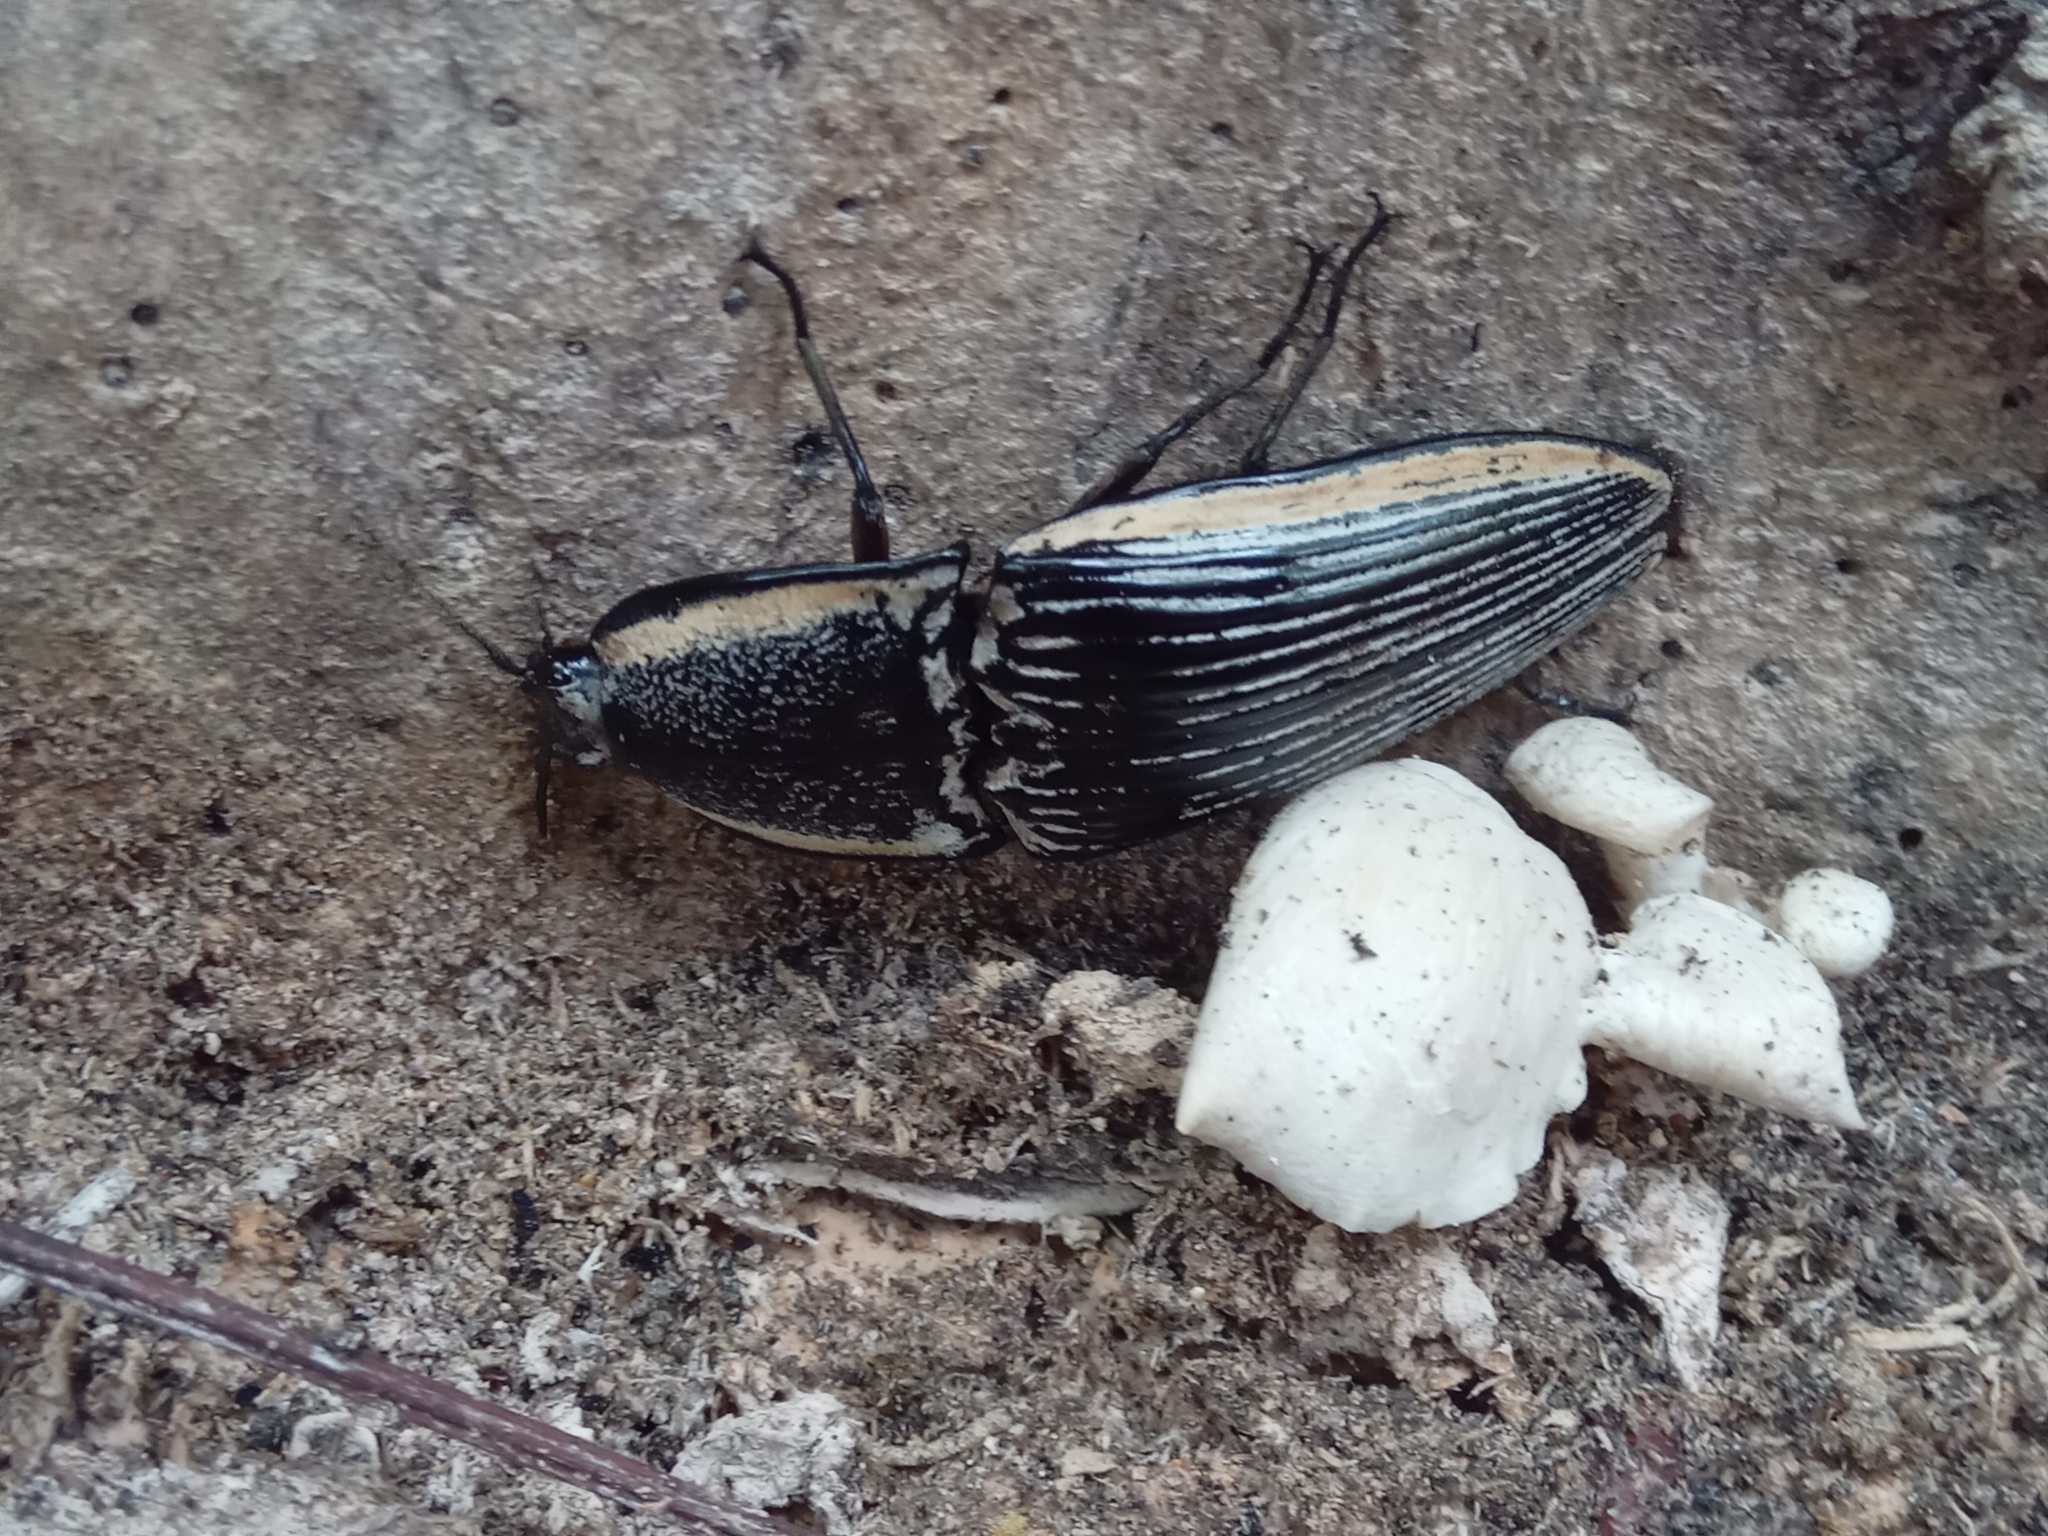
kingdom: Animalia
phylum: Arthropoda
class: Insecta
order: Coleoptera
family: Elateridae
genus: Chalcolepidius
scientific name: Chalcolepidius
